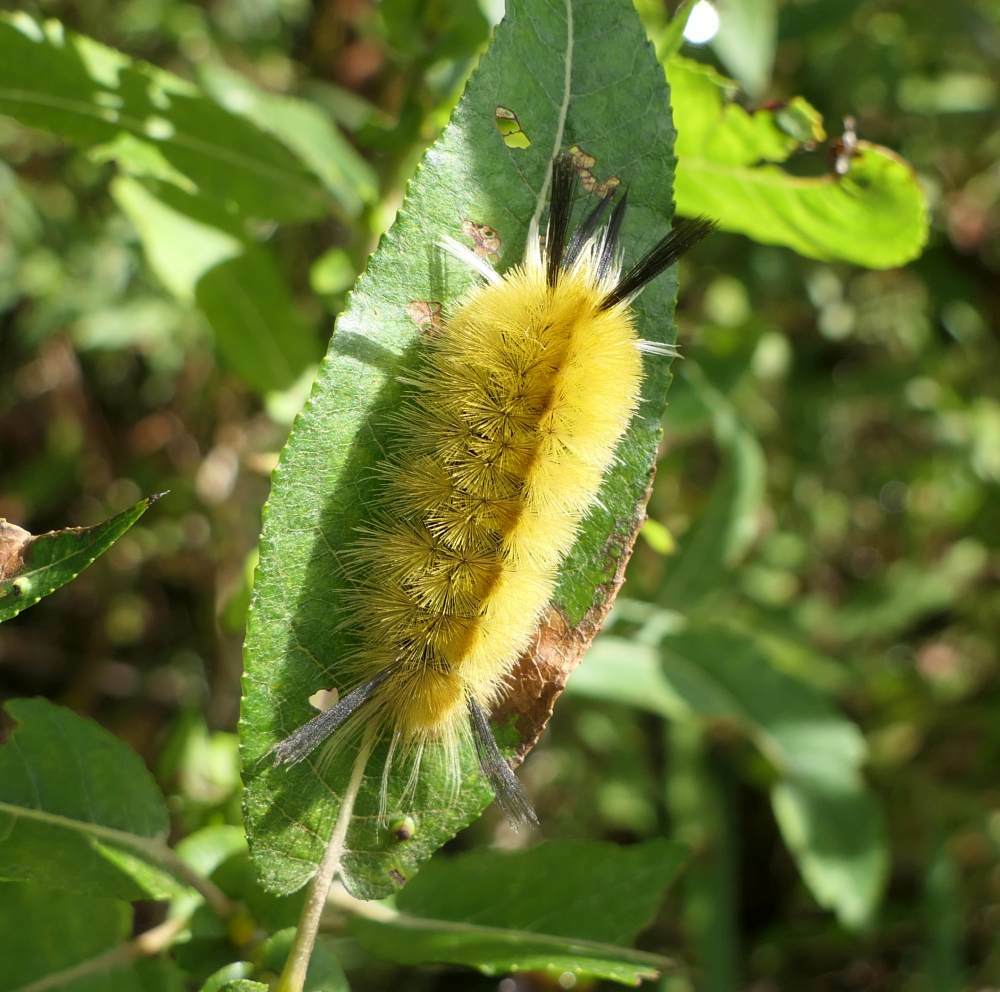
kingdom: Animalia
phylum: Arthropoda
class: Insecta
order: Lepidoptera
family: Erebidae
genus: Halysidota
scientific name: Halysidota tessellaris
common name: Banded tussock moth
